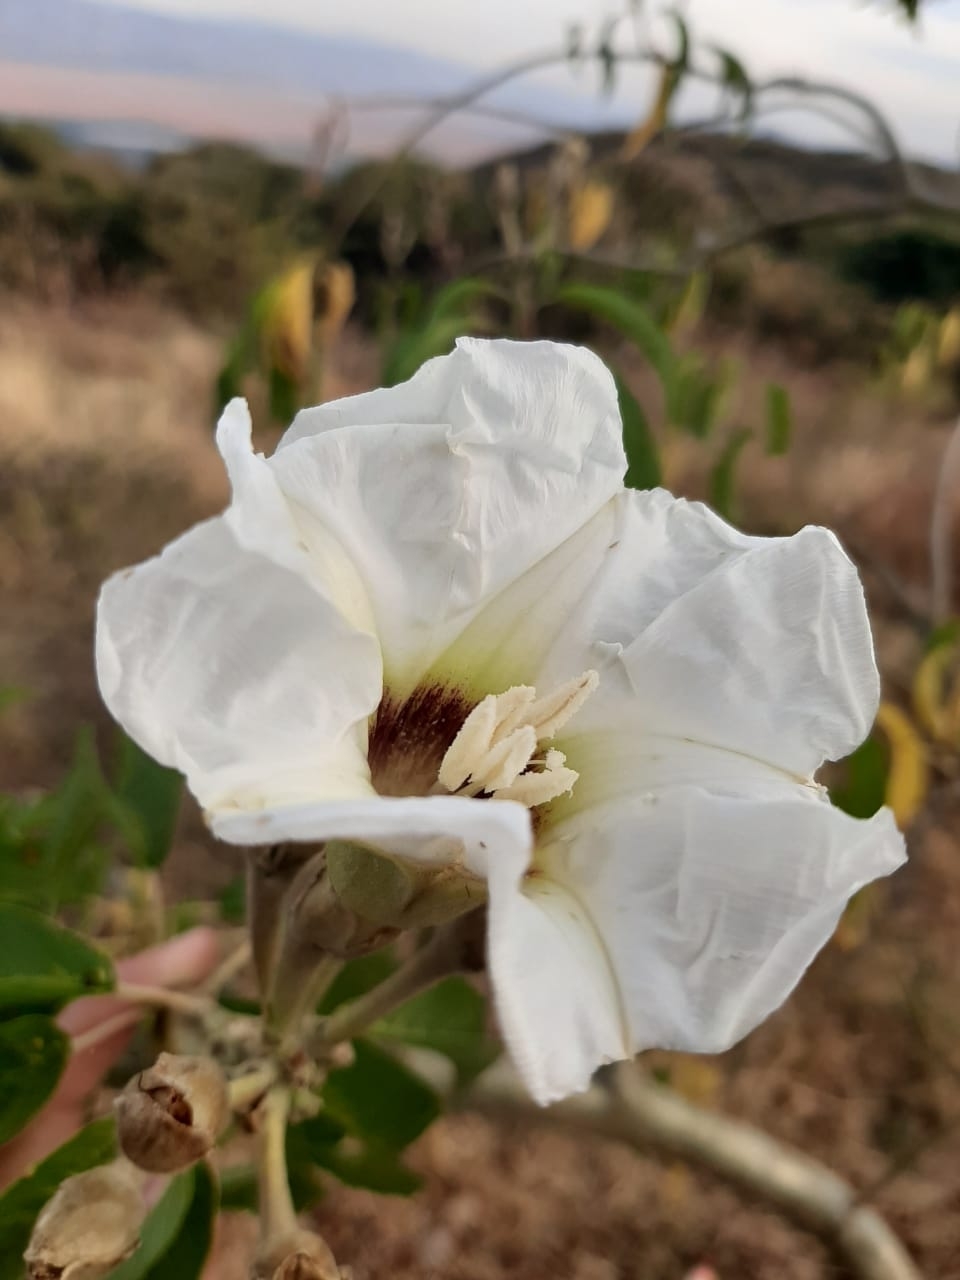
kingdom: Plantae
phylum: Tracheophyta
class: Magnoliopsida
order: Solanales
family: Convolvulaceae
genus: Ipomoea
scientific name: Ipomoea murucoides
